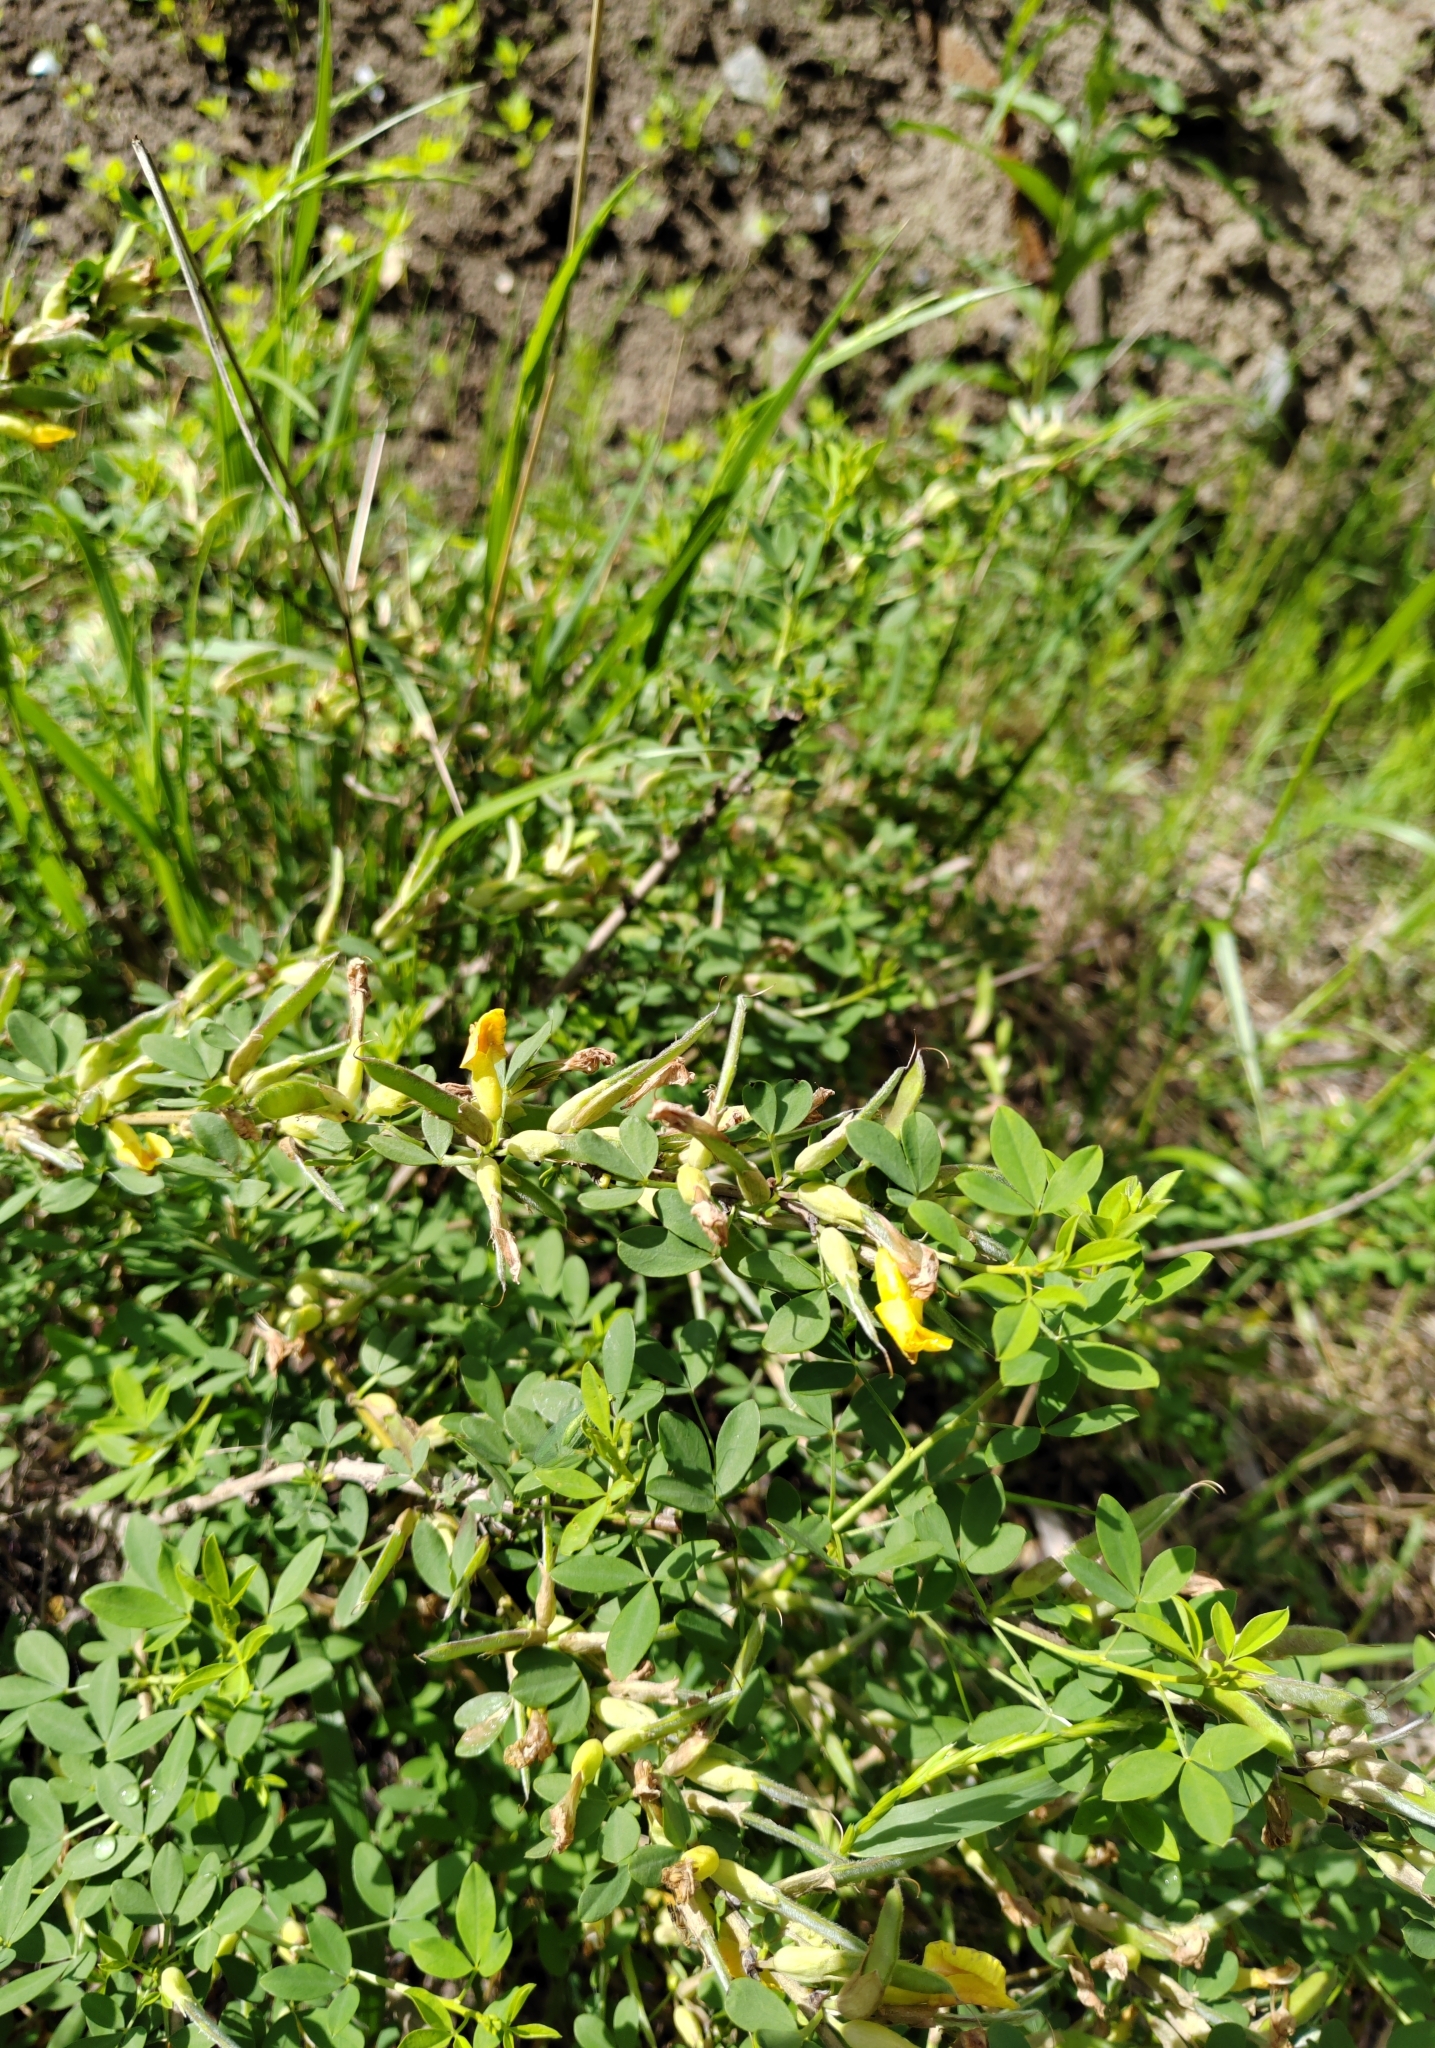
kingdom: Plantae
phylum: Tracheophyta
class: Magnoliopsida
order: Fabales
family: Fabaceae
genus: Chamaecytisus
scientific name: Chamaecytisus ruthenicus
